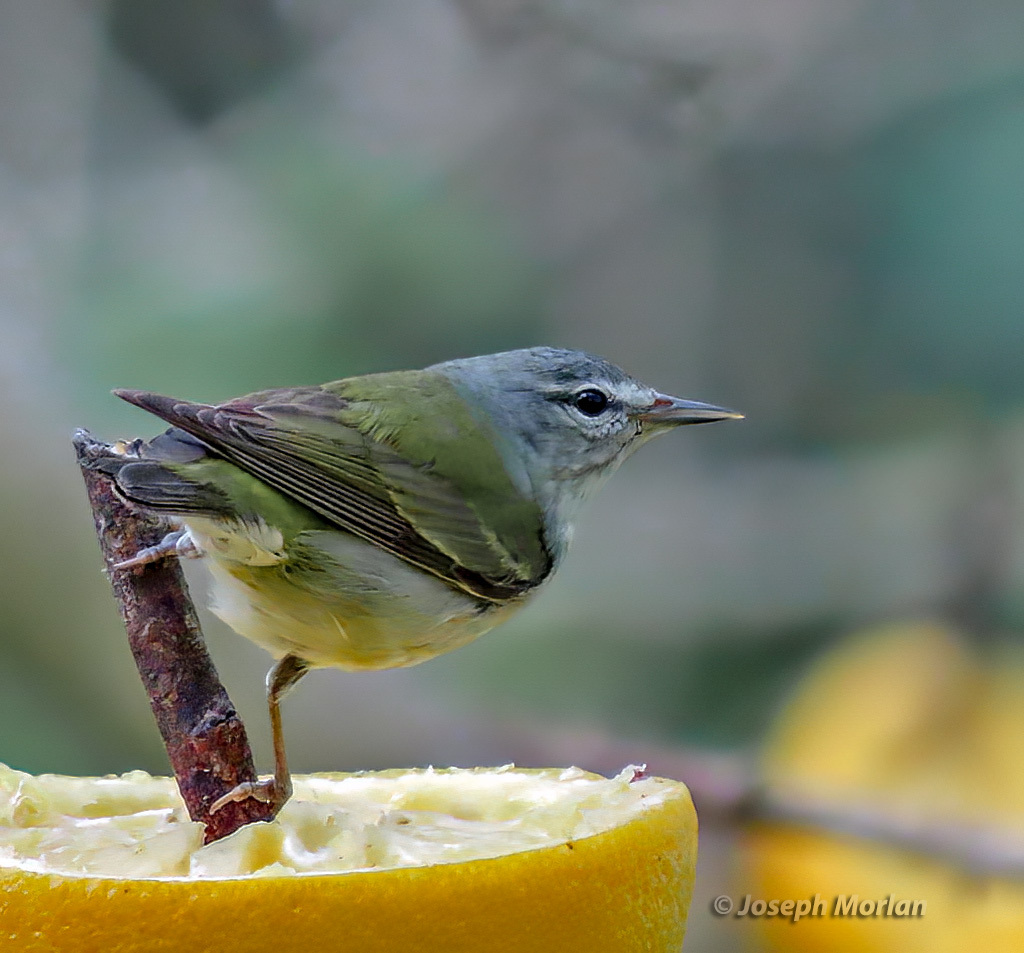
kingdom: Animalia
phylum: Chordata
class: Aves
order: Passeriformes
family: Parulidae
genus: Leiothlypis
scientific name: Leiothlypis peregrina
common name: Tennessee warbler
